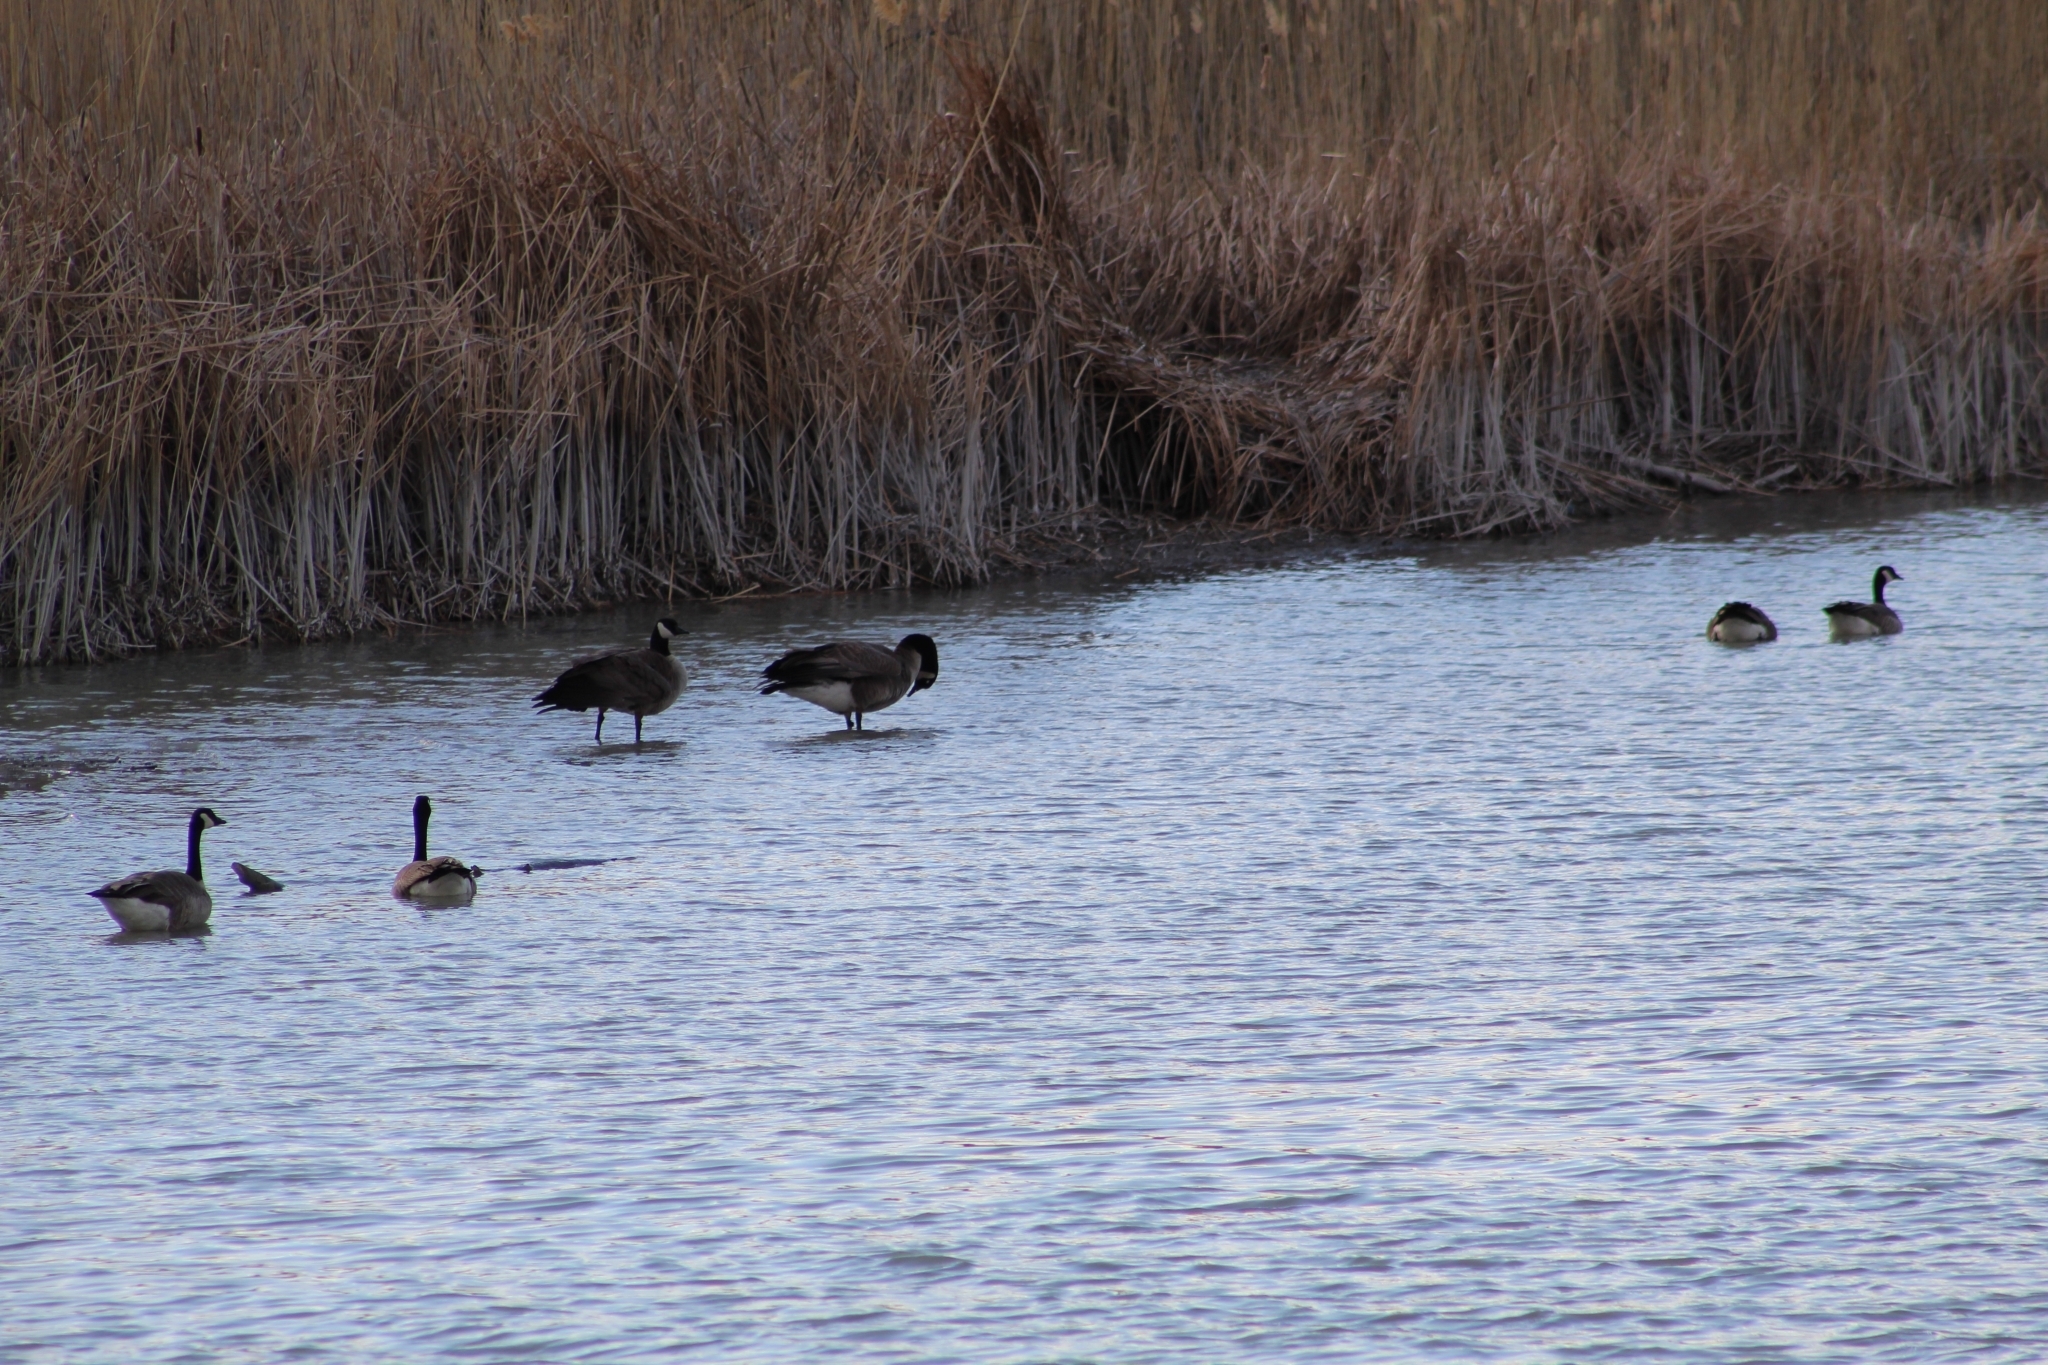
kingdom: Animalia
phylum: Chordata
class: Aves
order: Anseriformes
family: Anatidae
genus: Branta
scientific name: Branta canadensis
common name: Canada goose
